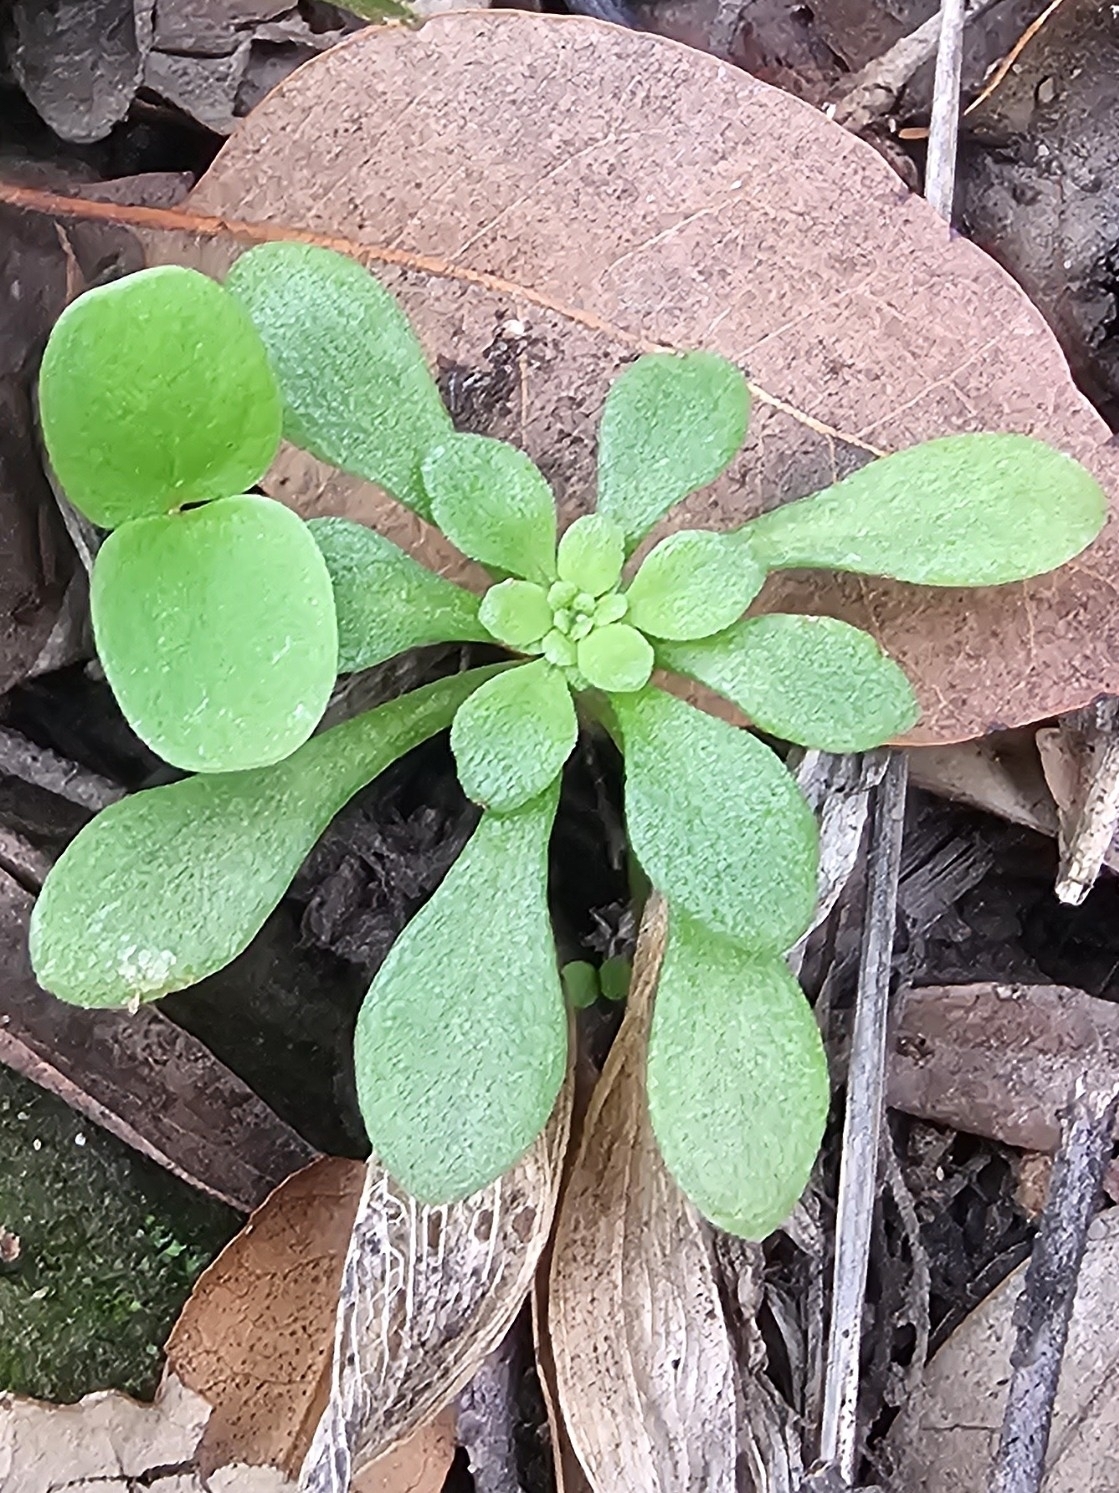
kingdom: Plantae
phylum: Tracheophyta
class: Magnoliopsida
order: Saxifragales
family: Crassulaceae
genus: Sedum
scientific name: Sedum cepaea
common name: Pink stonecrop
